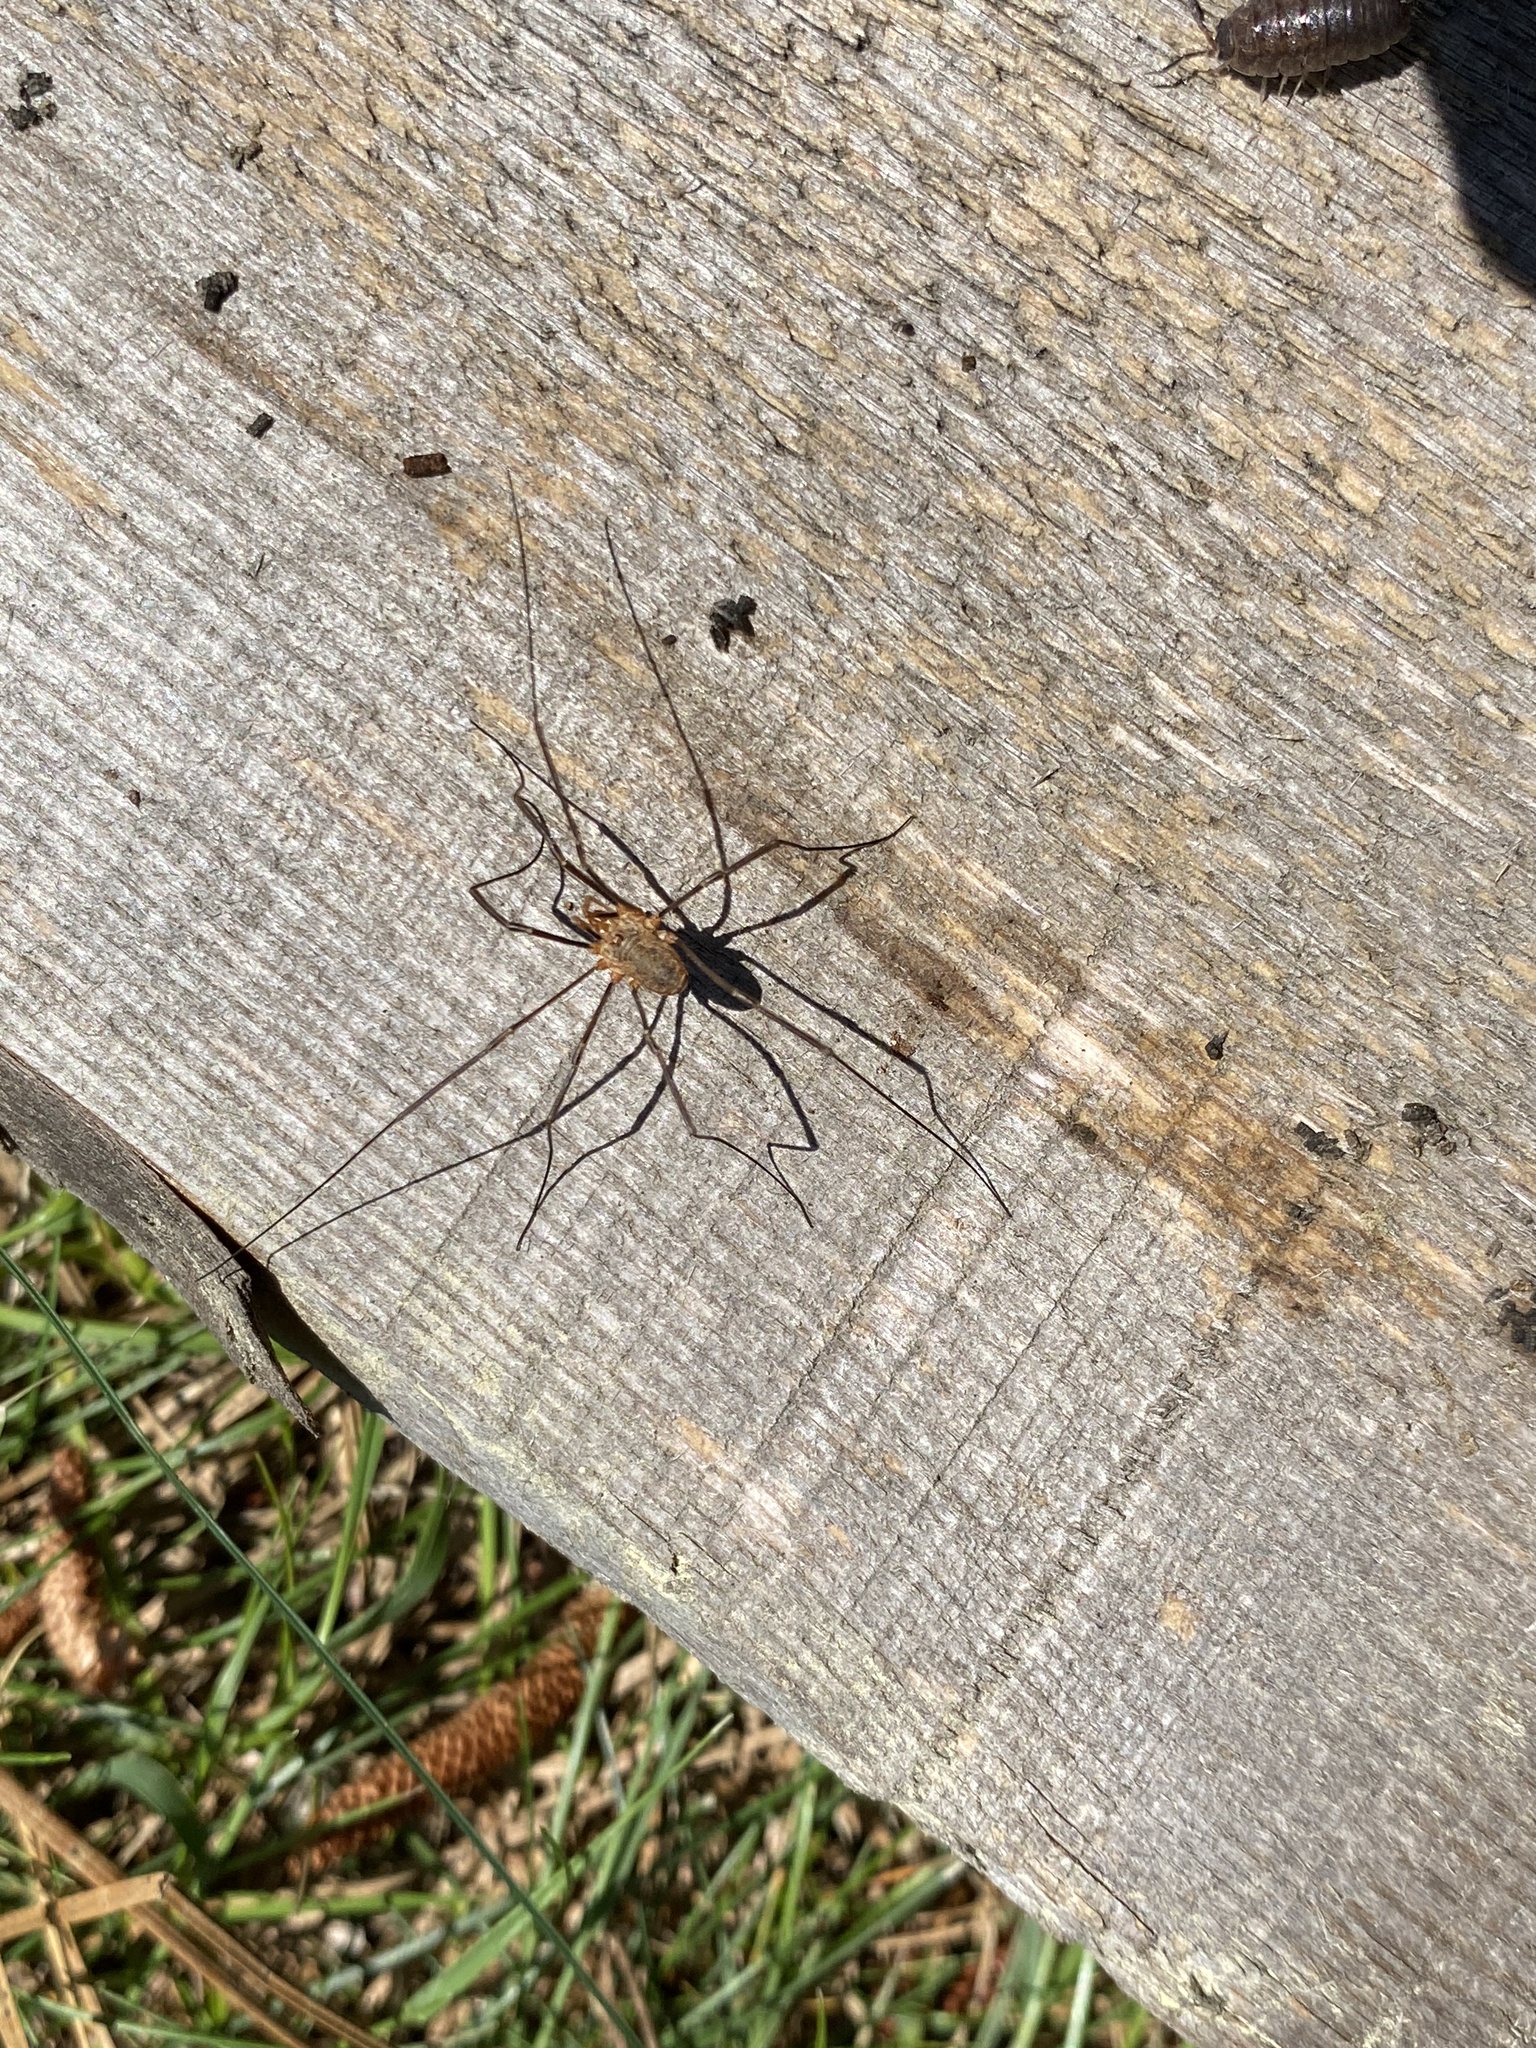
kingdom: Animalia
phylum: Arthropoda
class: Arachnida
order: Opiliones
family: Phalangiidae
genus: Phalangium
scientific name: Phalangium opilio
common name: Daddy longleg
